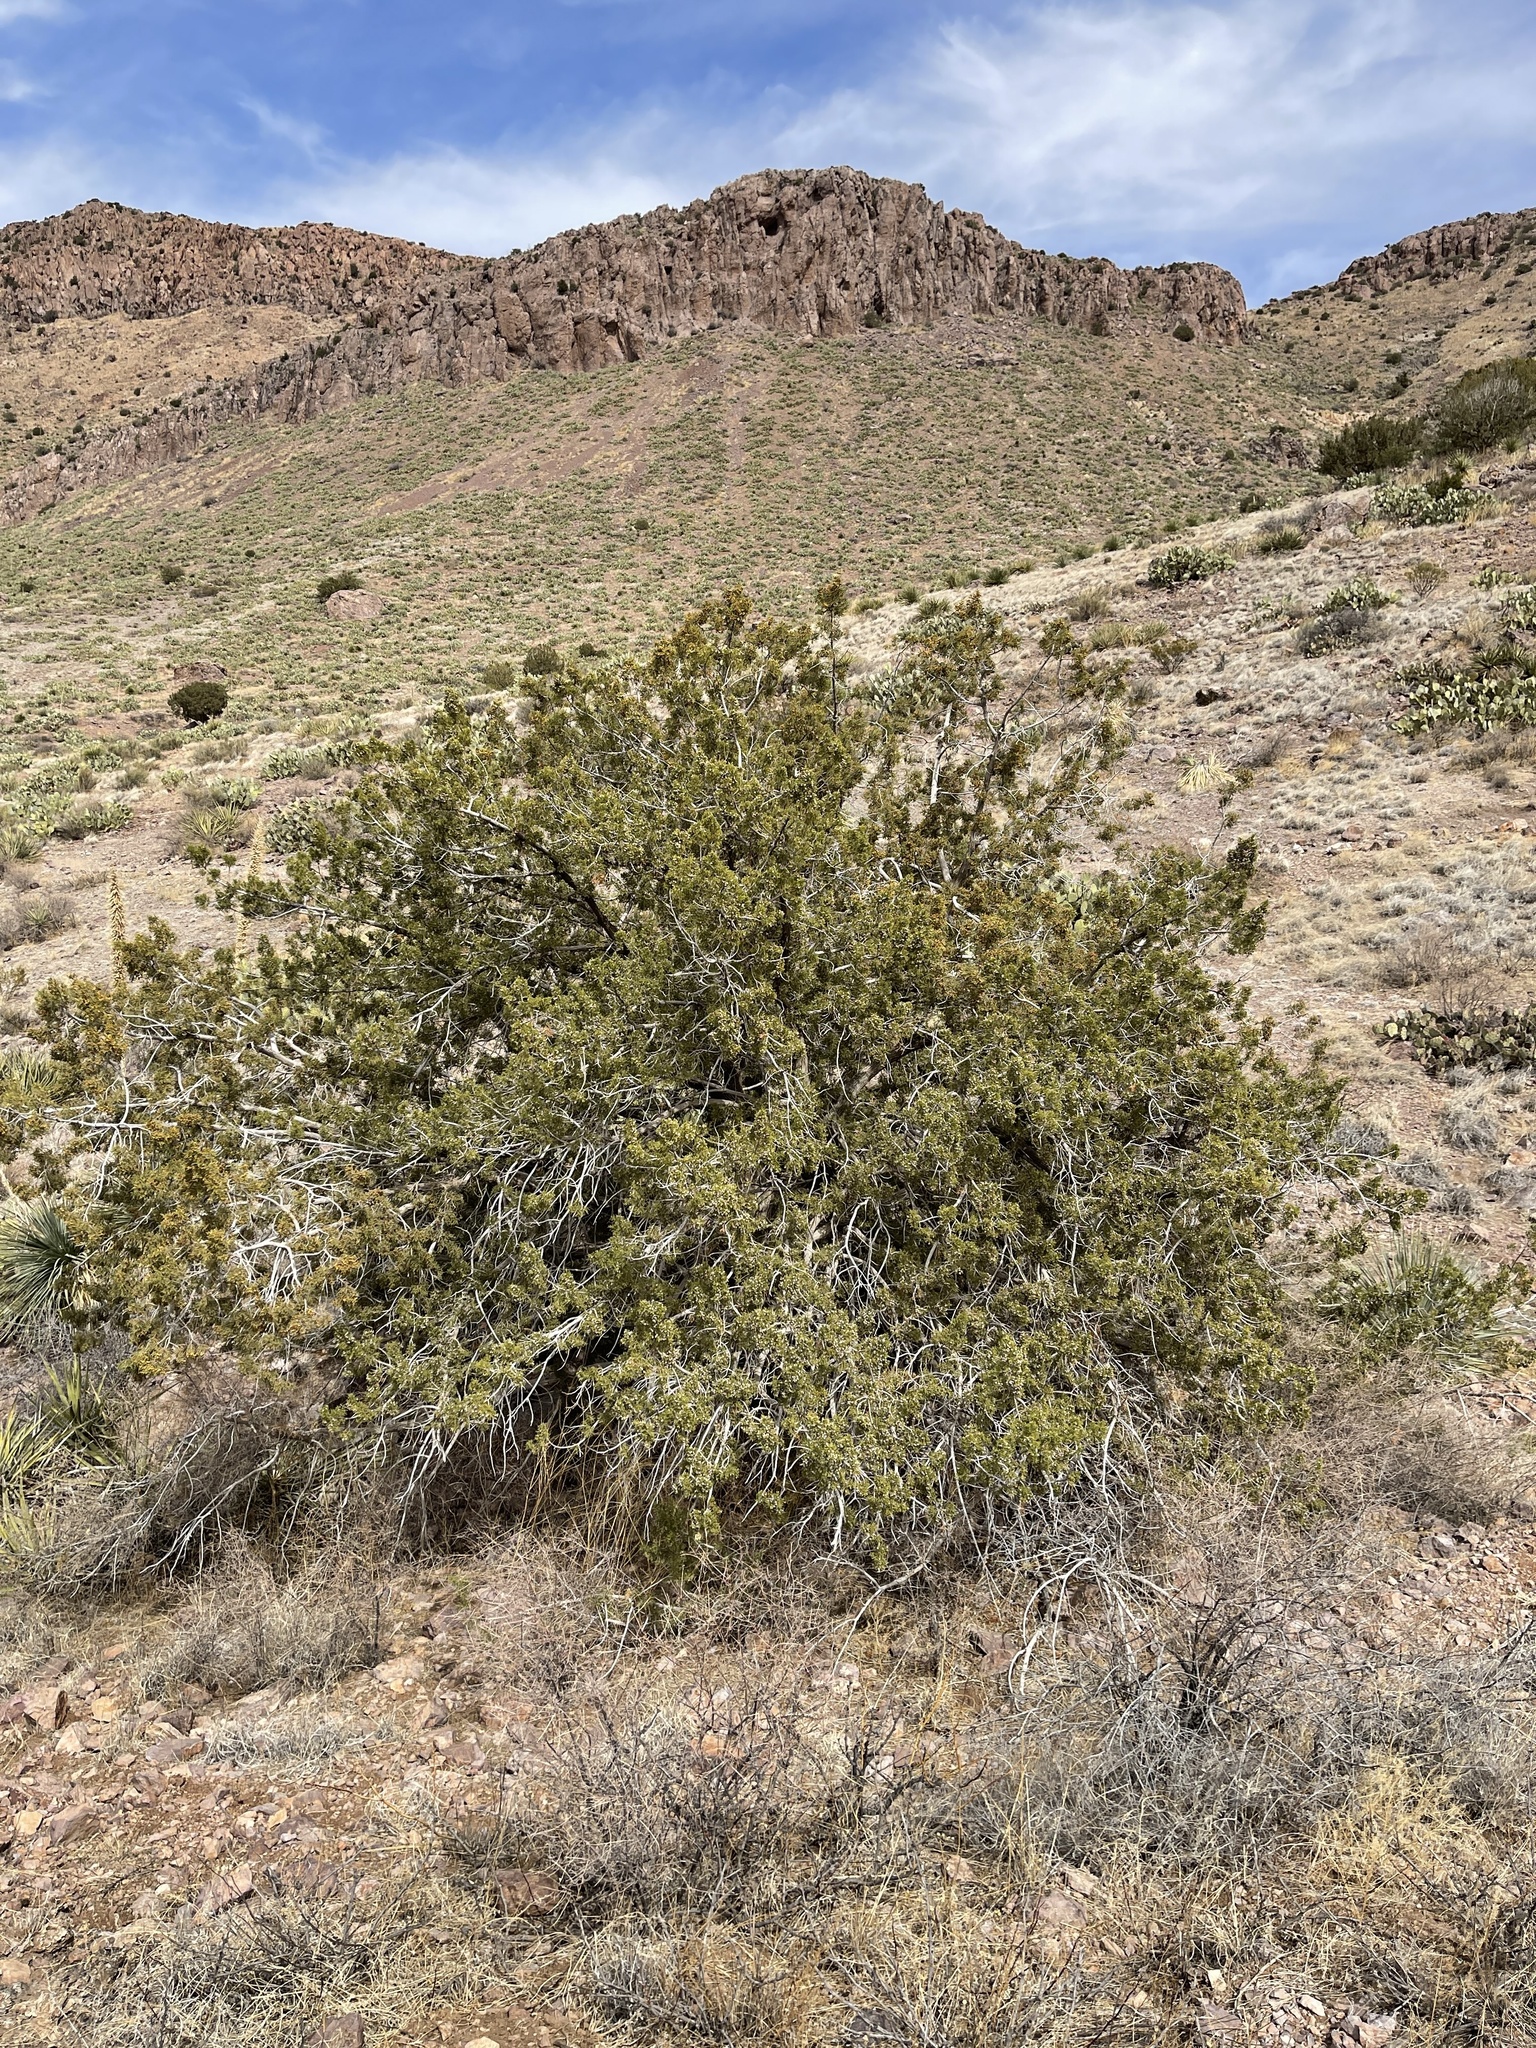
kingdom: Plantae
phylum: Tracheophyta
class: Pinopsida
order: Pinales
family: Cupressaceae
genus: Juniperus
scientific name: Juniperus monosperma
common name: One-seed juniper
